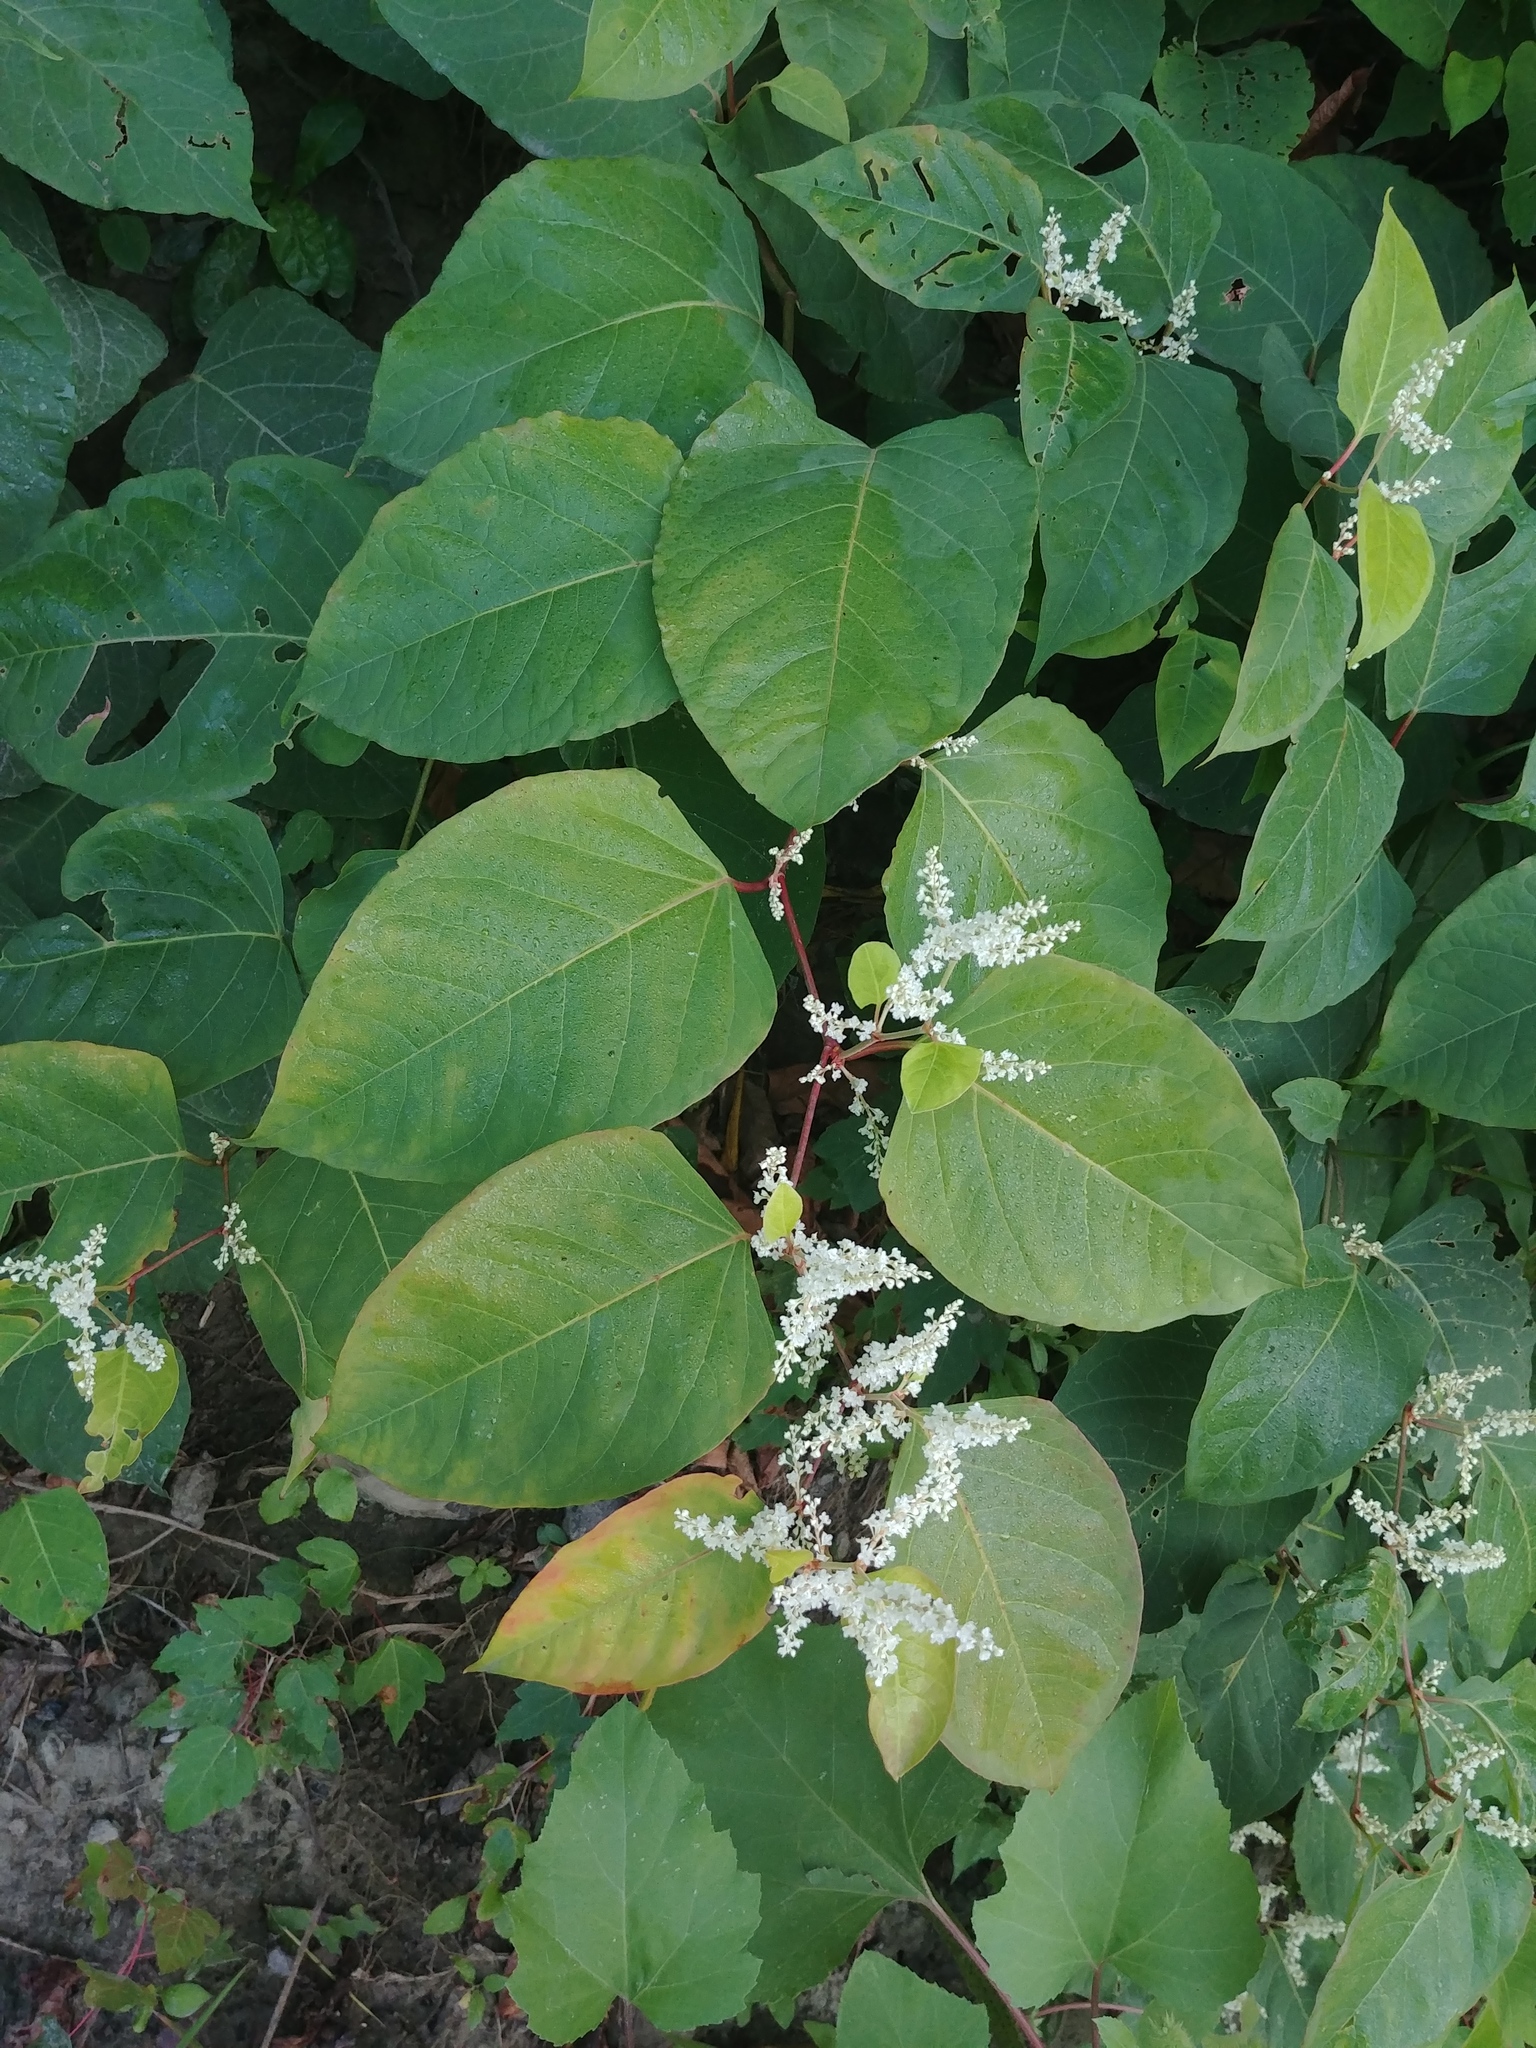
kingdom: Plantae
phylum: Tracheophyta
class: Magnoliopsida
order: Caryophyllales
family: Polygonaceae
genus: Reynoutria
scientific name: Reynoutria japonica
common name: Japanese knotweed
